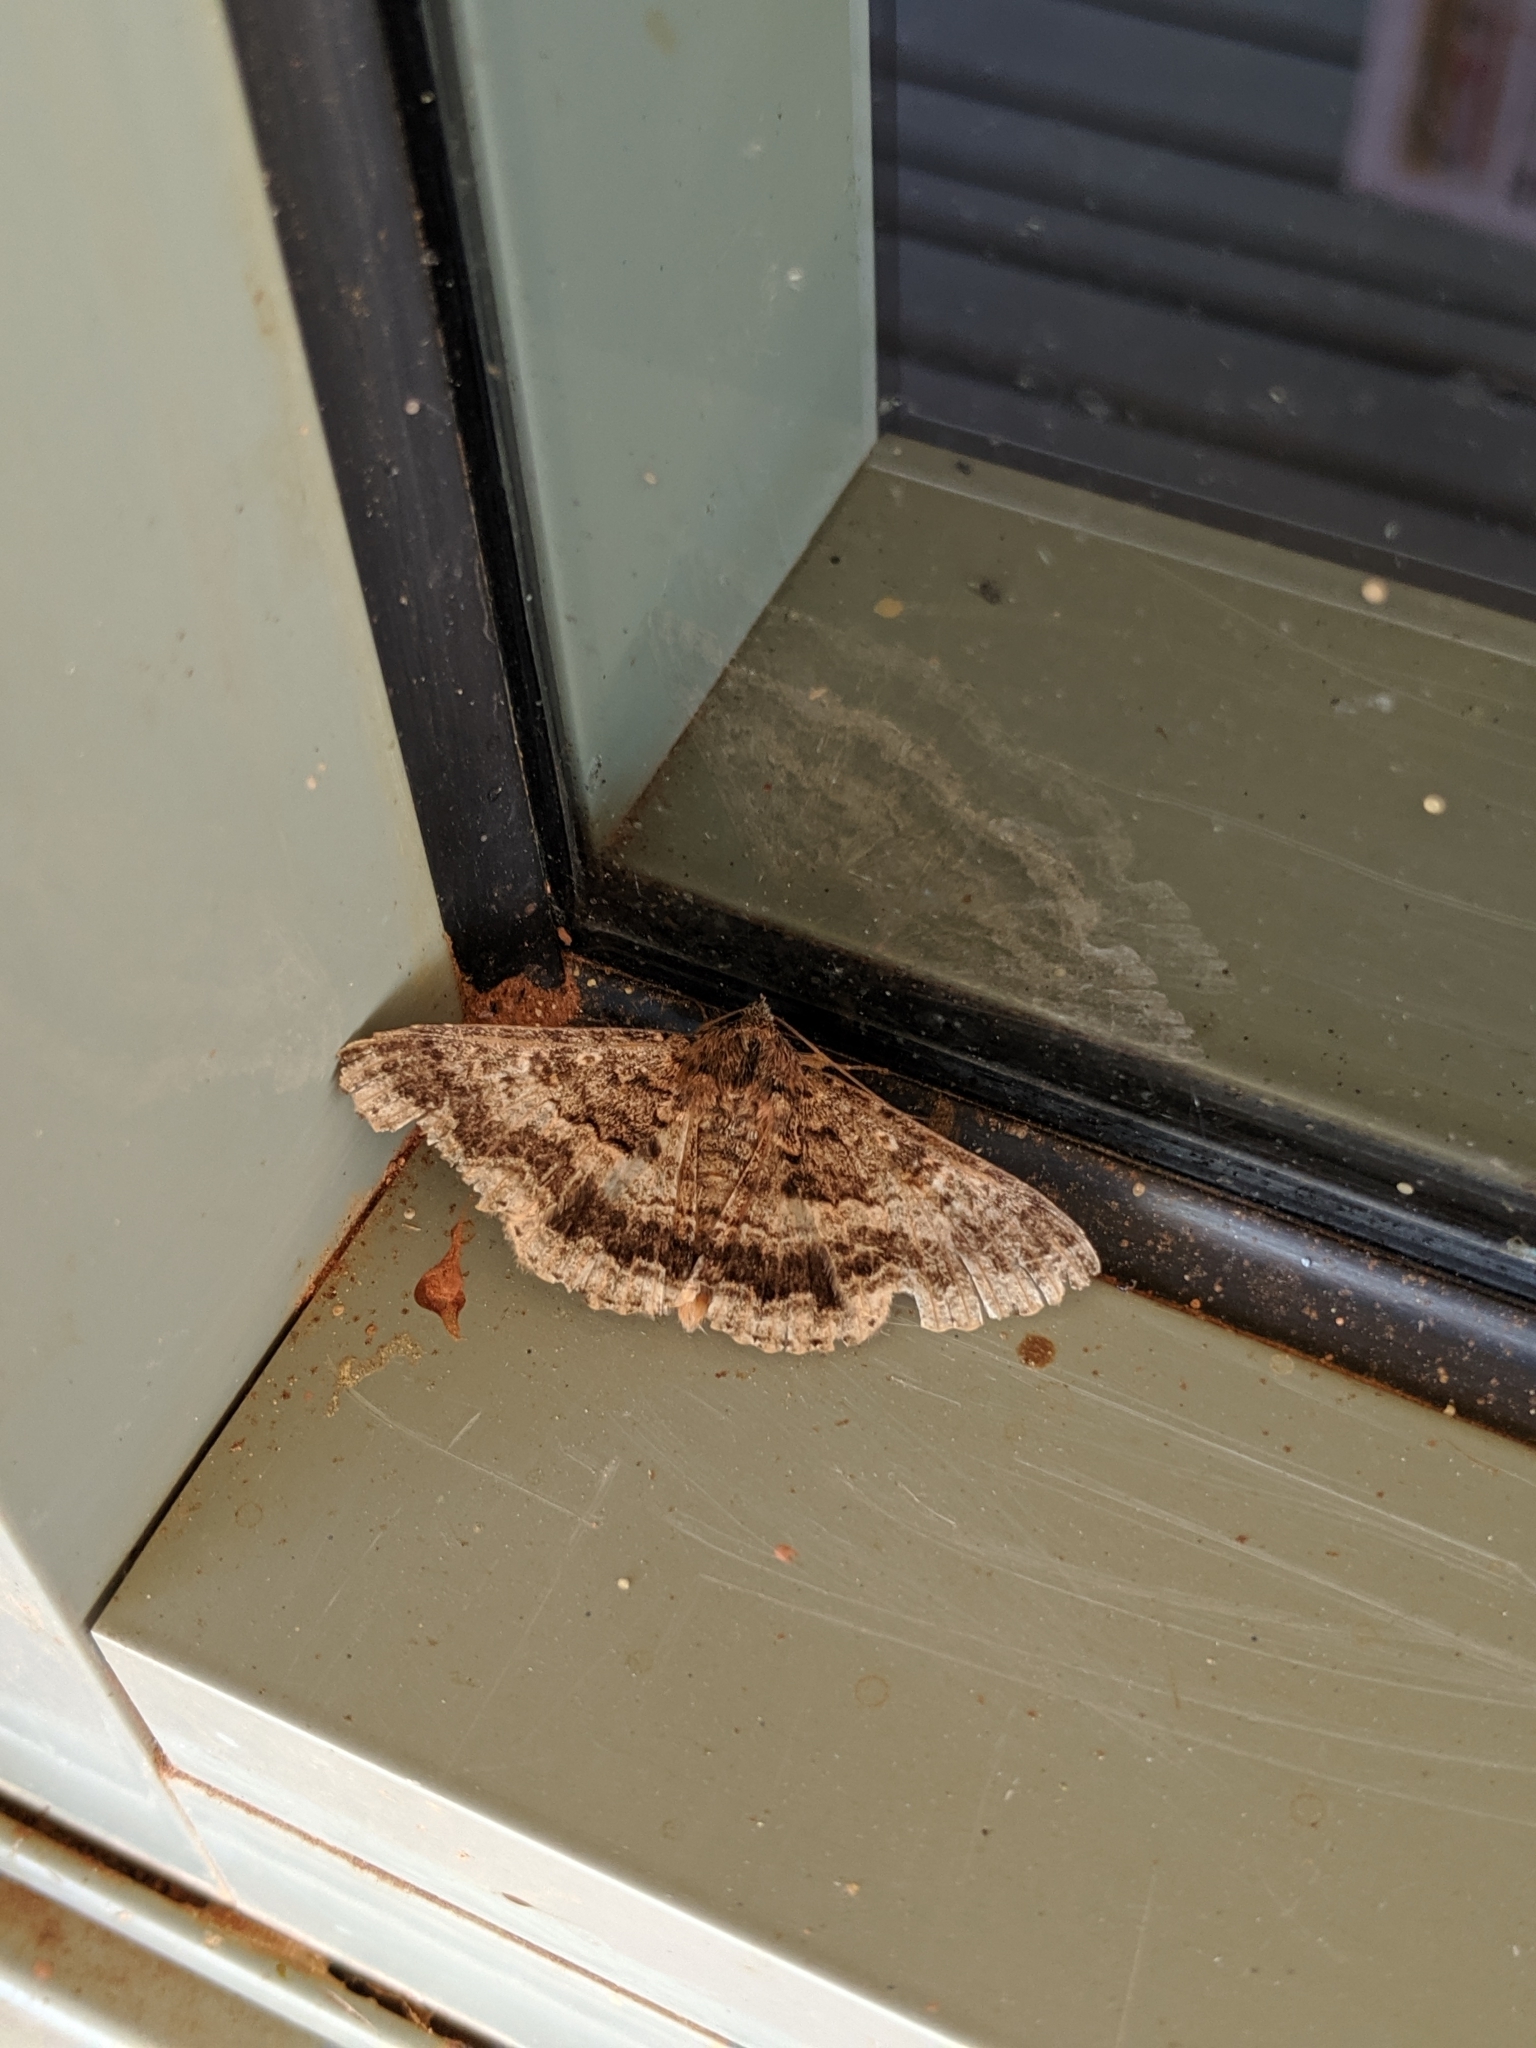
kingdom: Animalia
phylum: Arthropoda
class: Insecta
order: Lepidoptera
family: Erebidae
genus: Eudesmeola
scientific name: Eudesmeola lawsoni
